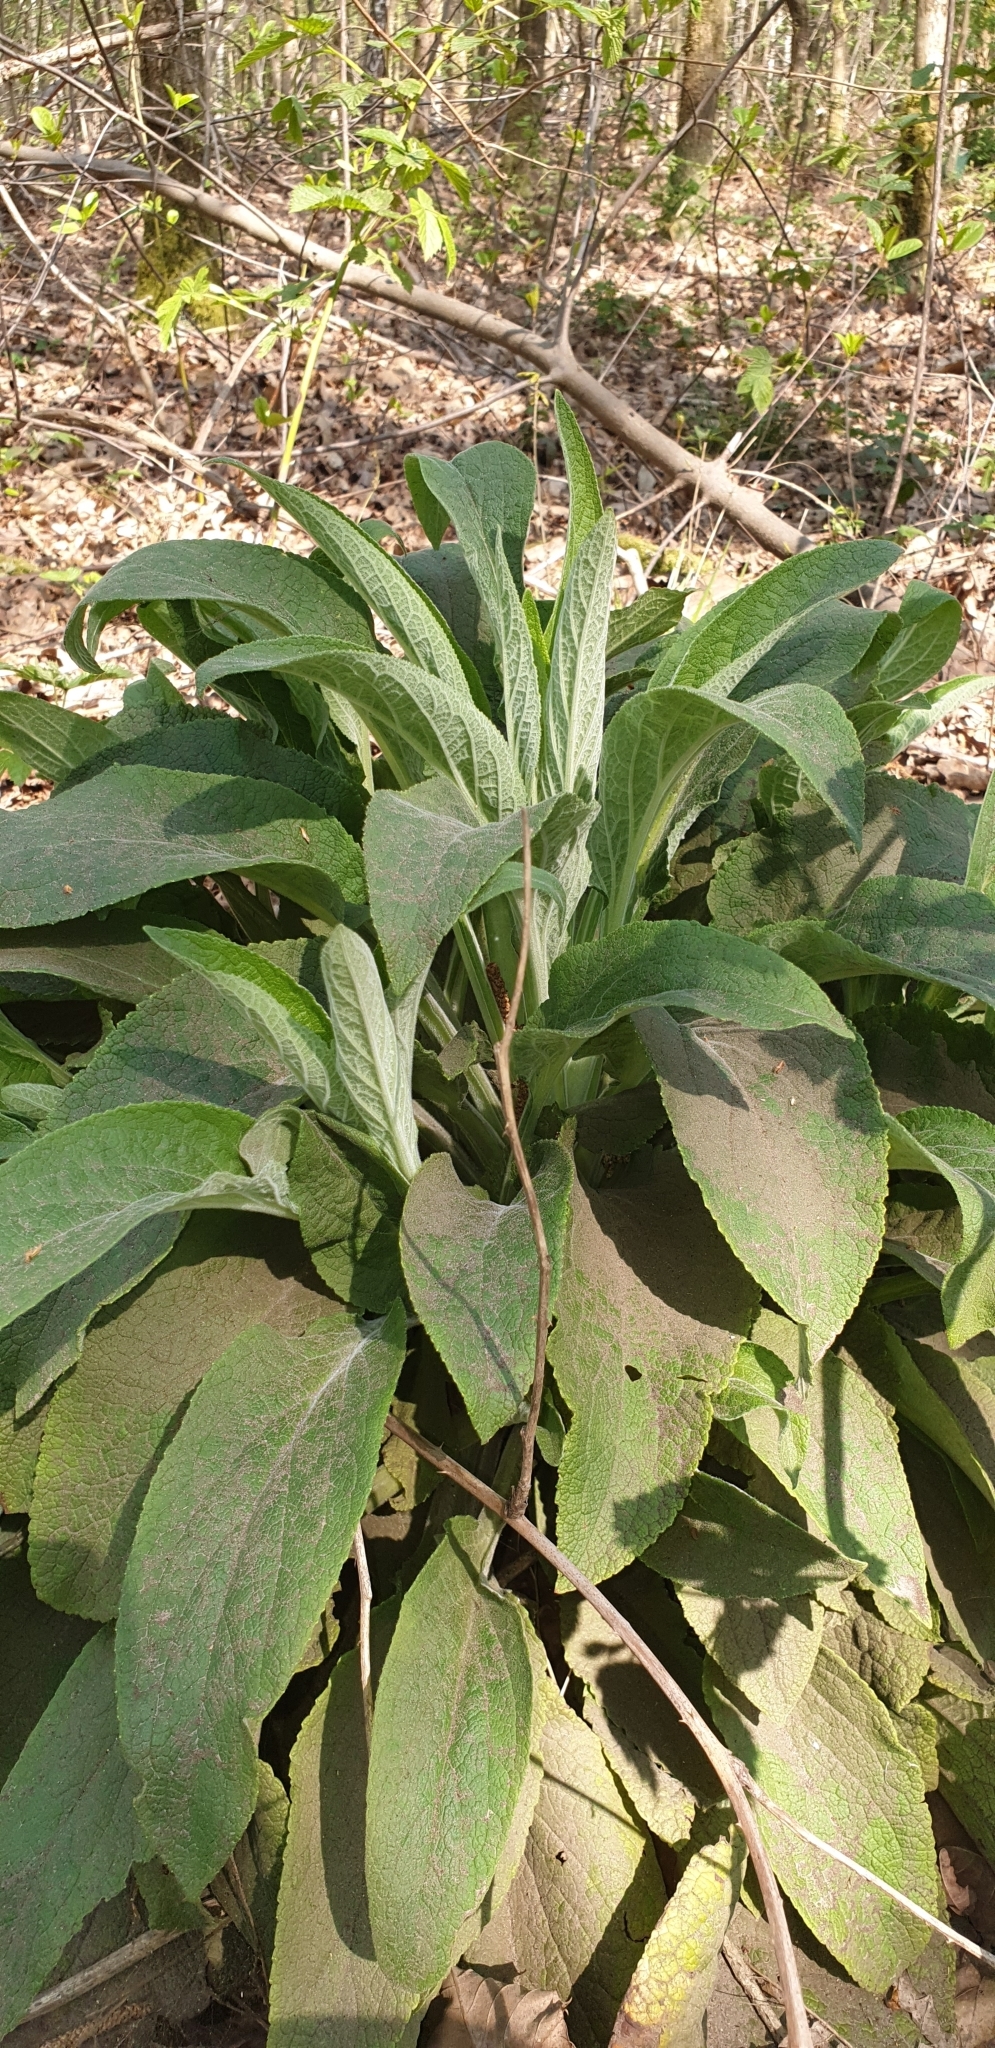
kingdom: Plantae
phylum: Tracheophyta
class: Magnoliopsida
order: Lamiales
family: Plantaginaceae
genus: Digitalis
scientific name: Digitalis purpurea
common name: Foxglove
